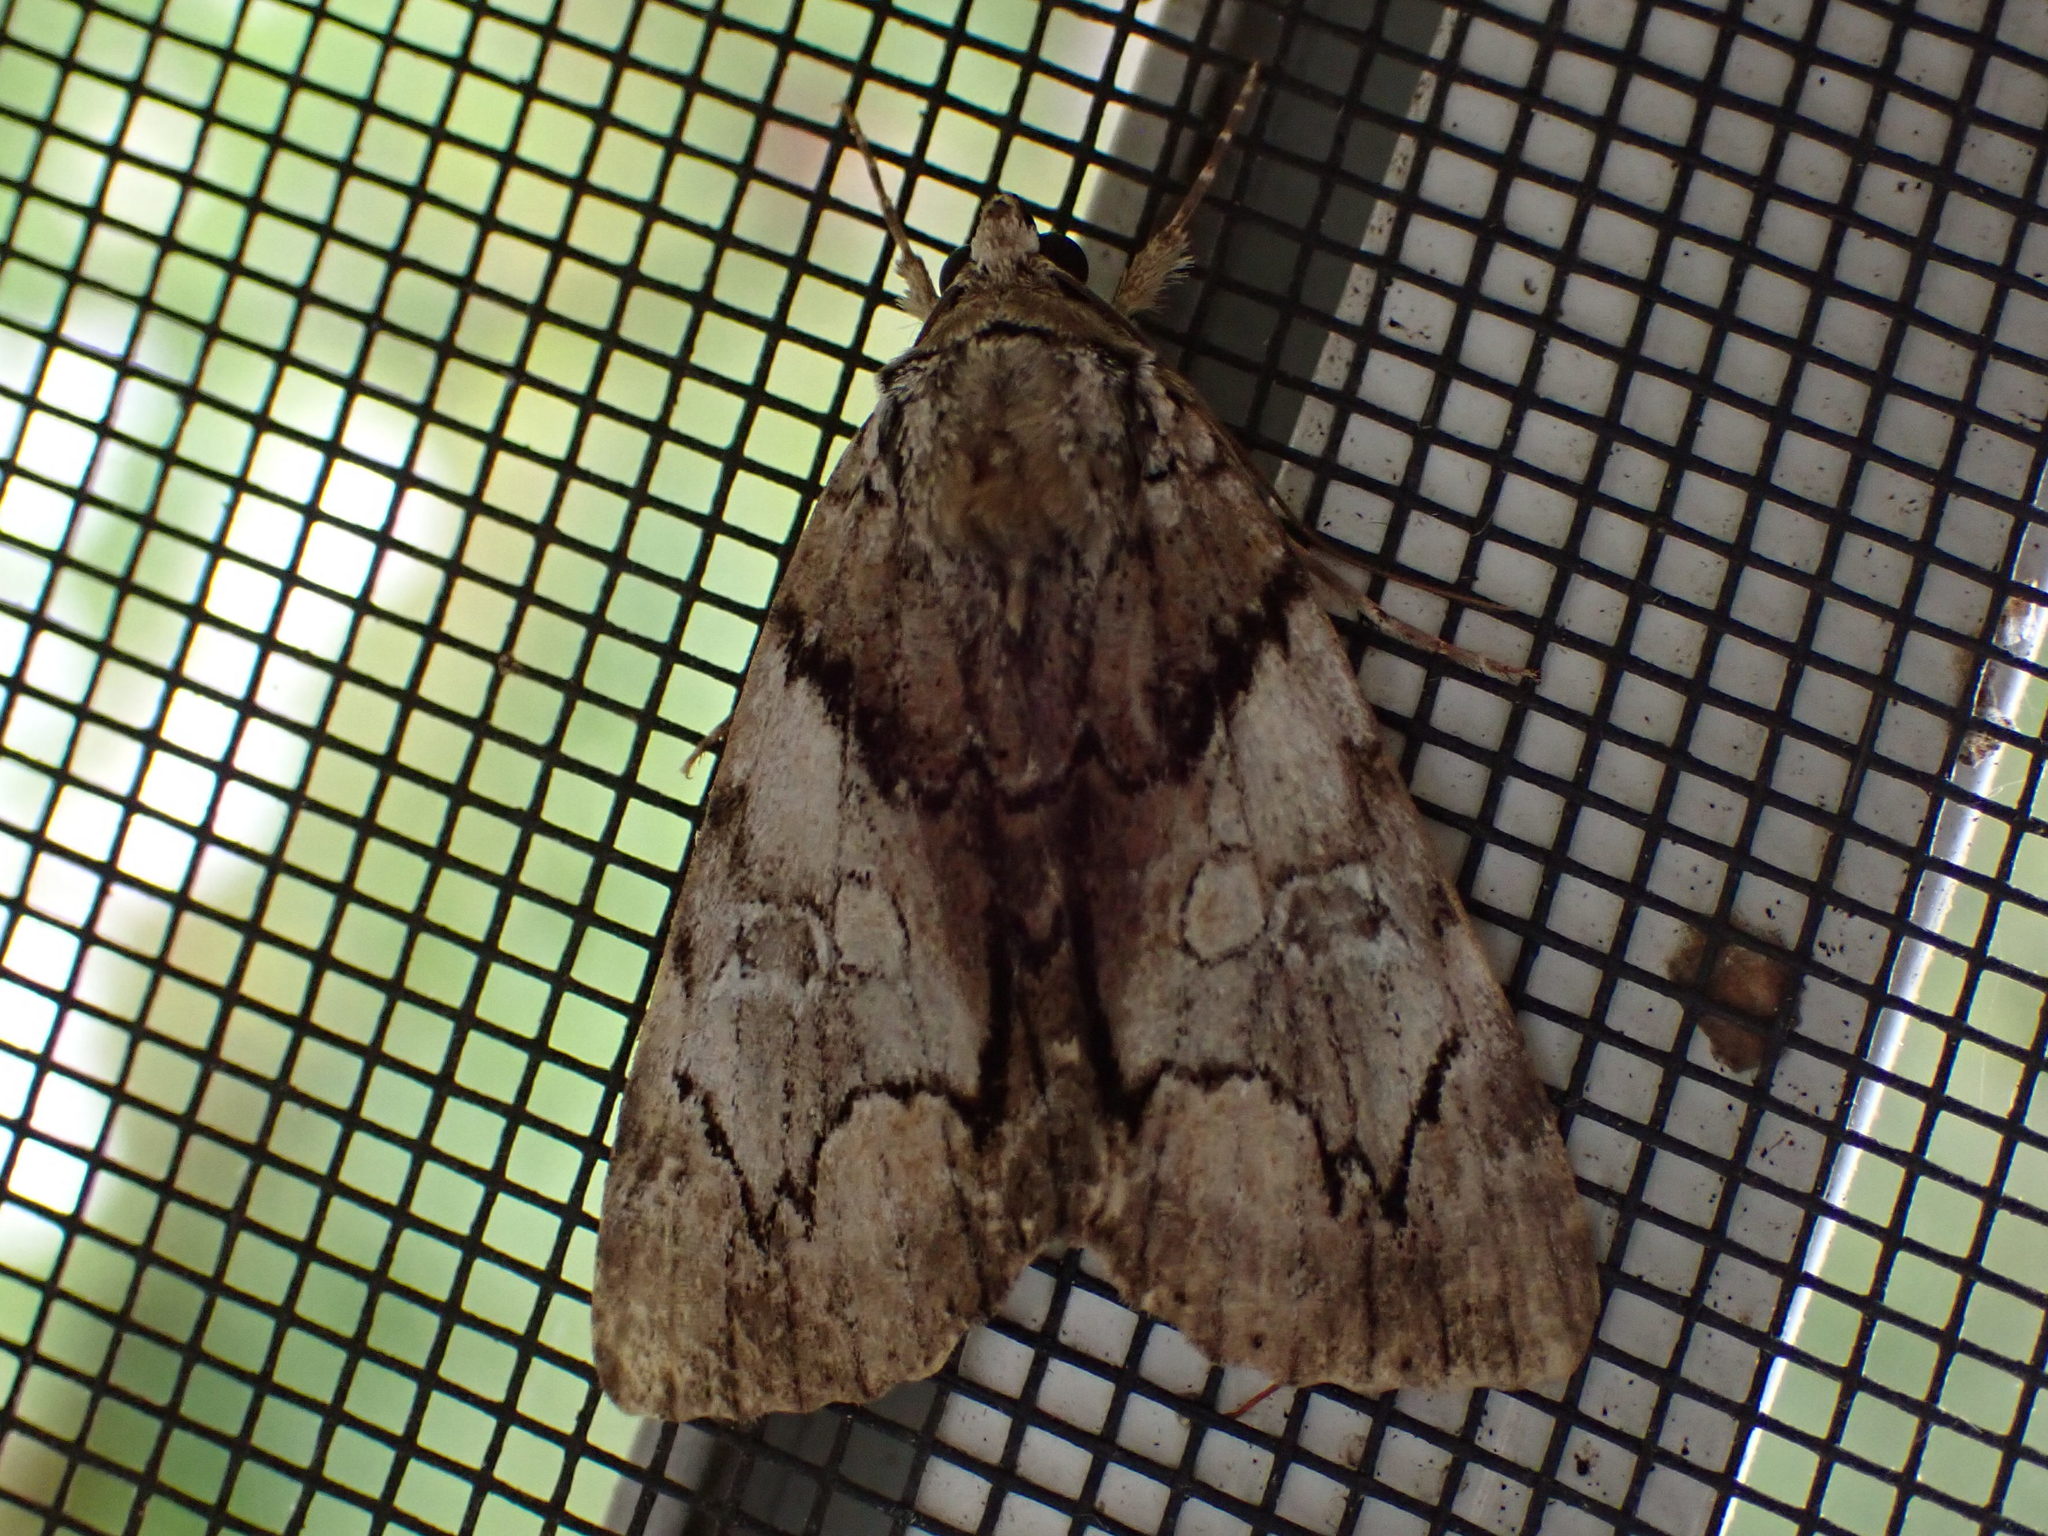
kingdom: Animalia
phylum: Arthropoda
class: Insecta
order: Lepidoptera
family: Erebidae
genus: Catocala
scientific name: Catocala blandula
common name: Charming underwing
